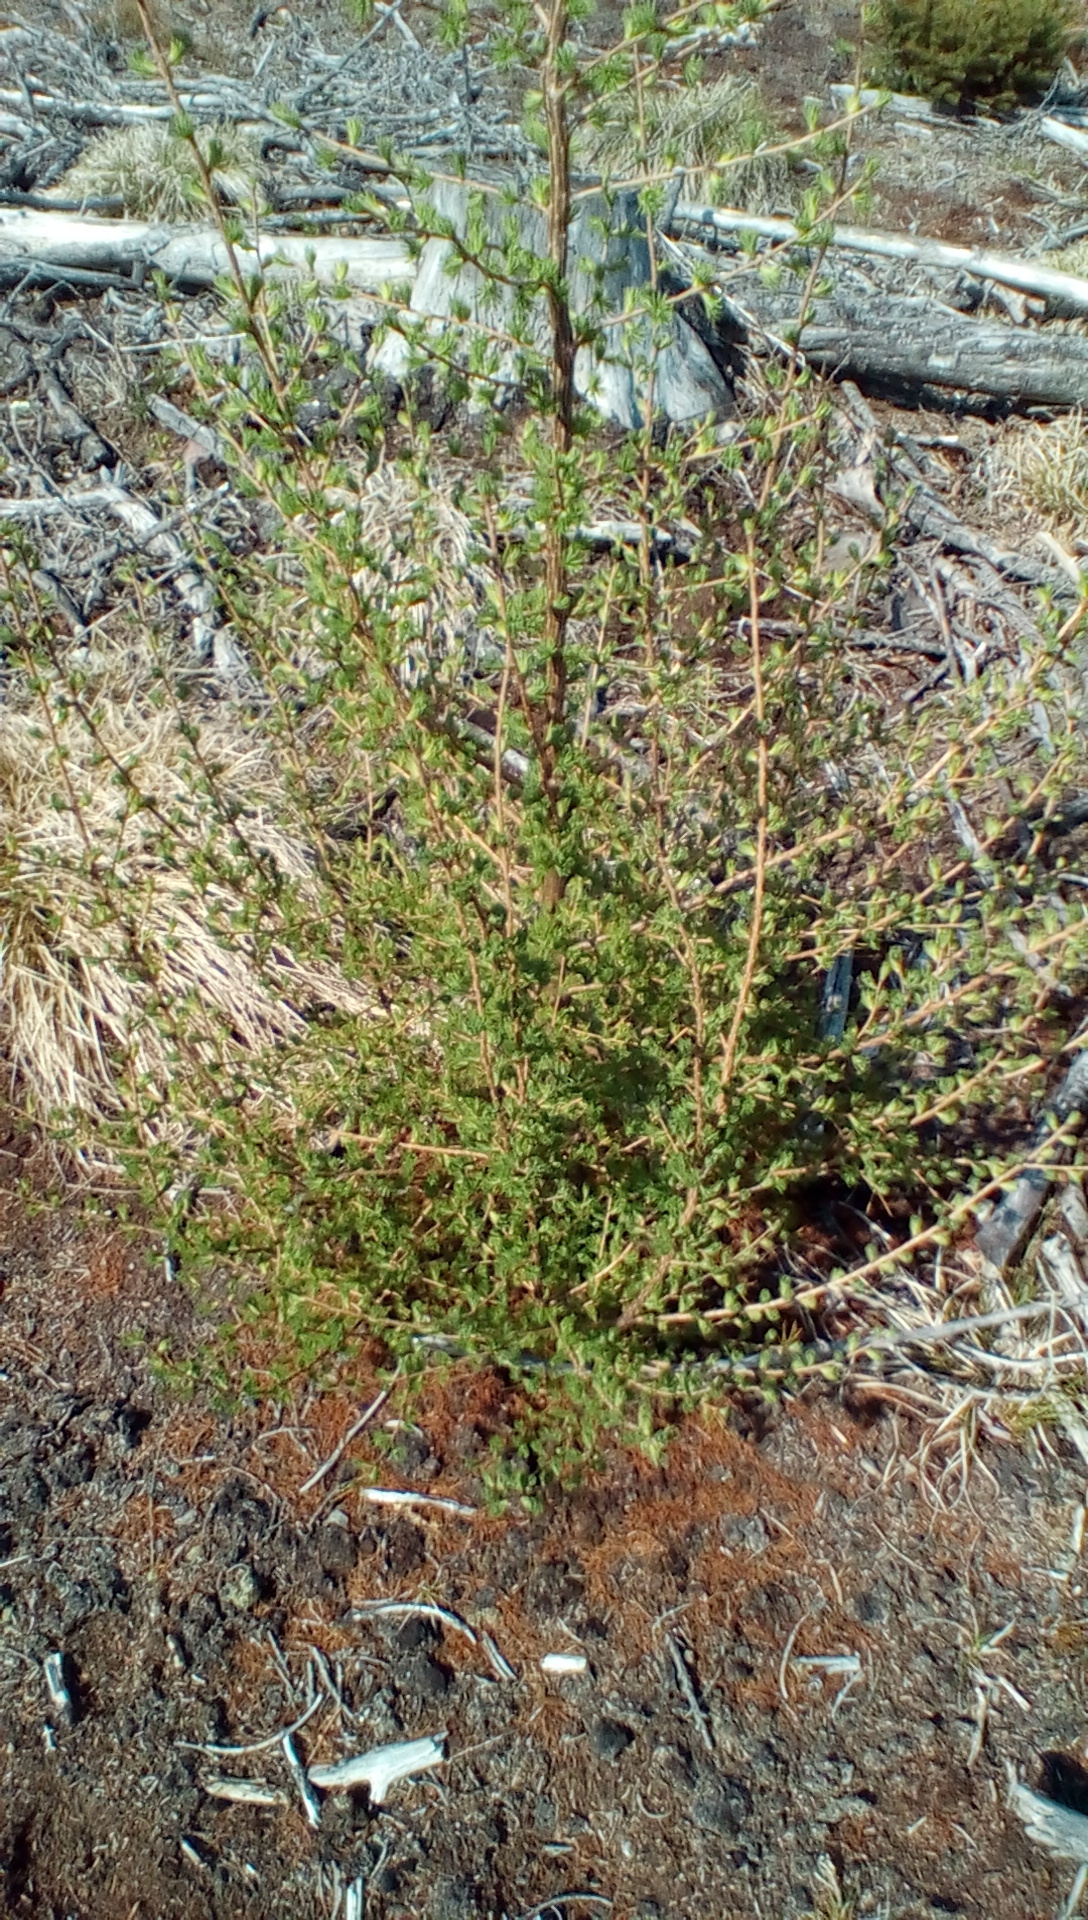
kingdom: Plantae
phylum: Tracheophyta
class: Pinopsida
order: Pinales
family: Pinaceae
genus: Larix
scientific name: Larix laricina
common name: American larch
